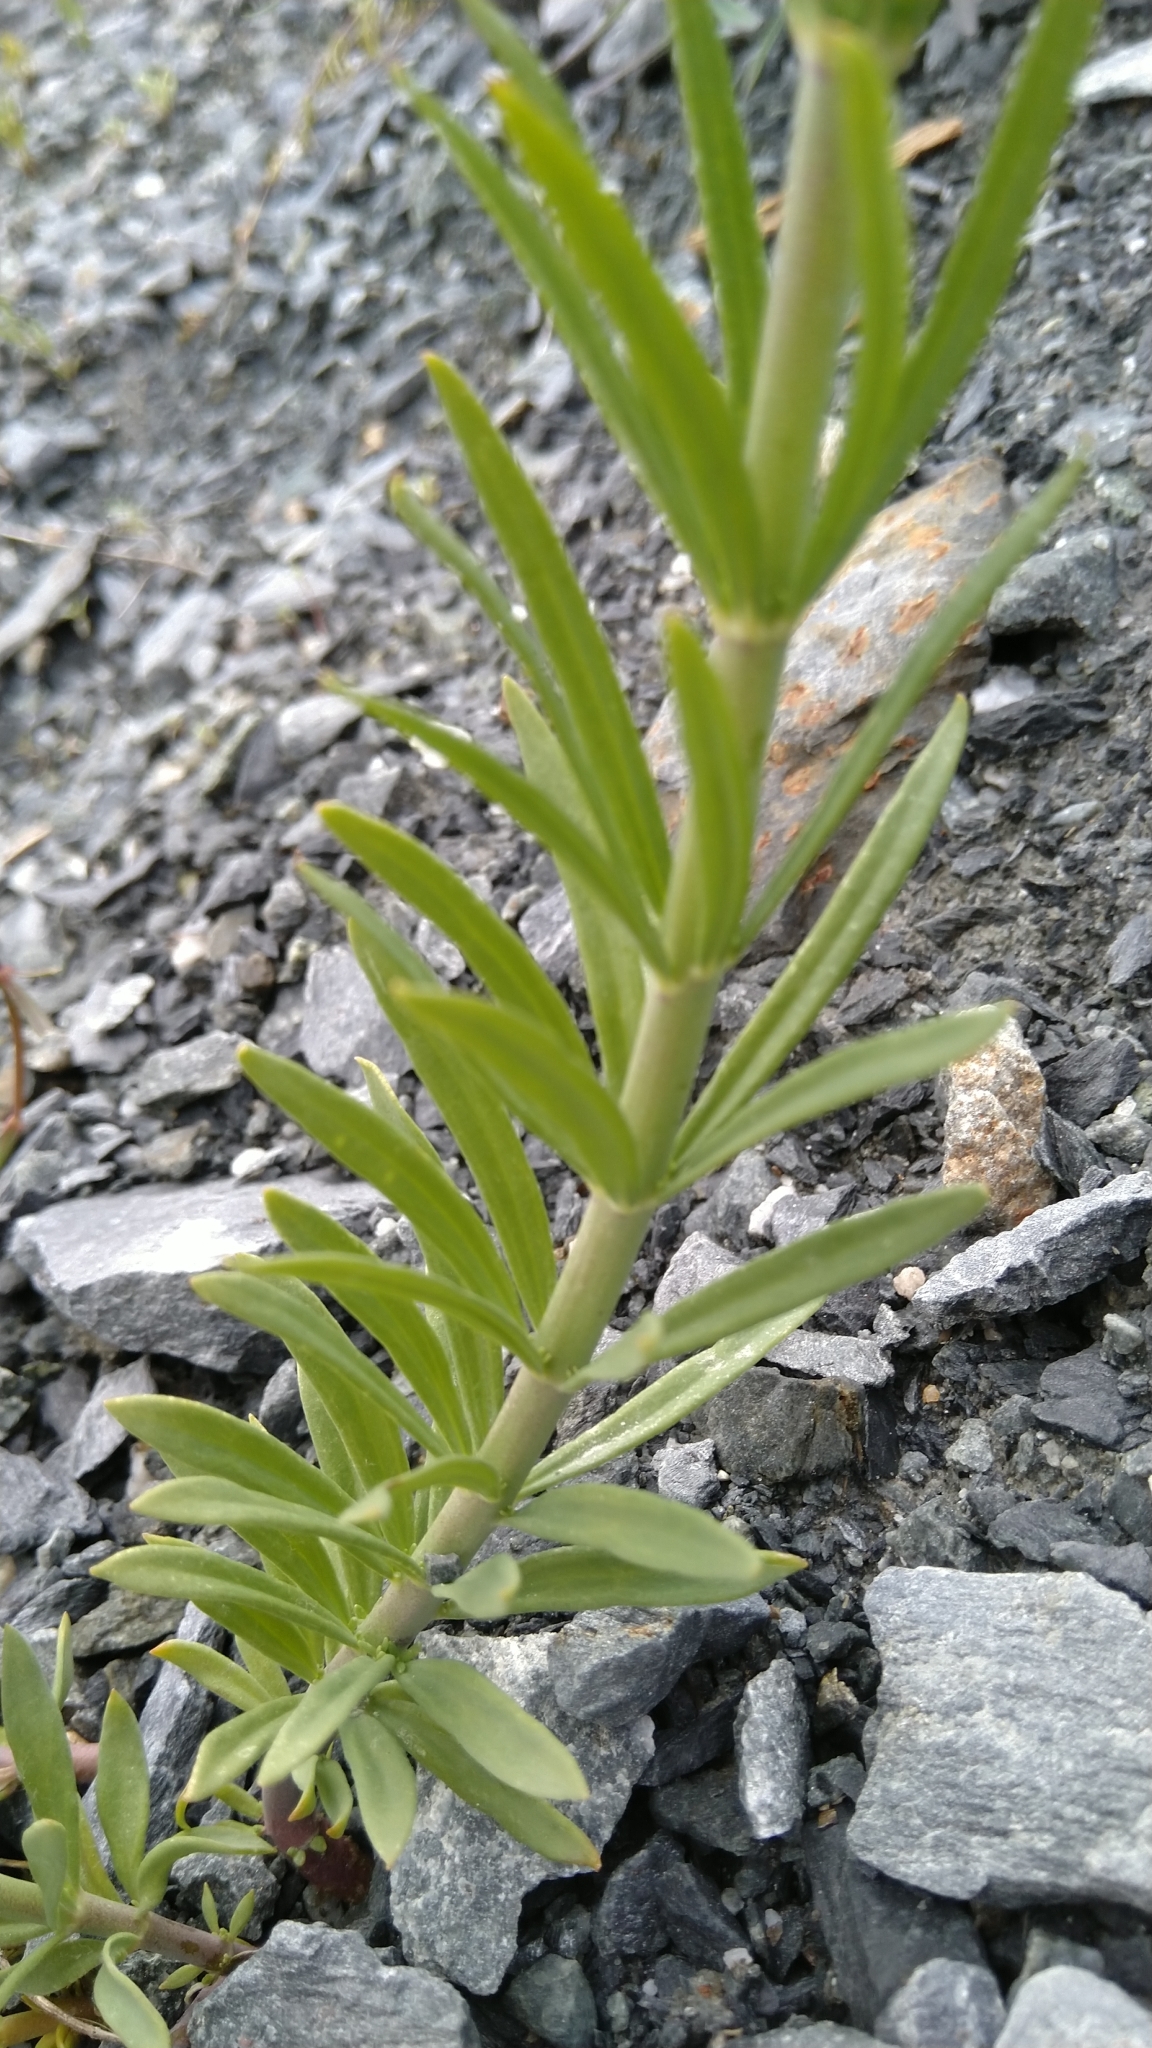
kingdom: Plantae
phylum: Tracheophyta
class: Magnoliopsida
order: Lamiales
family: Plantaginaceae
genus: Linaria
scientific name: Linaria repens
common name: Pale toadflax
